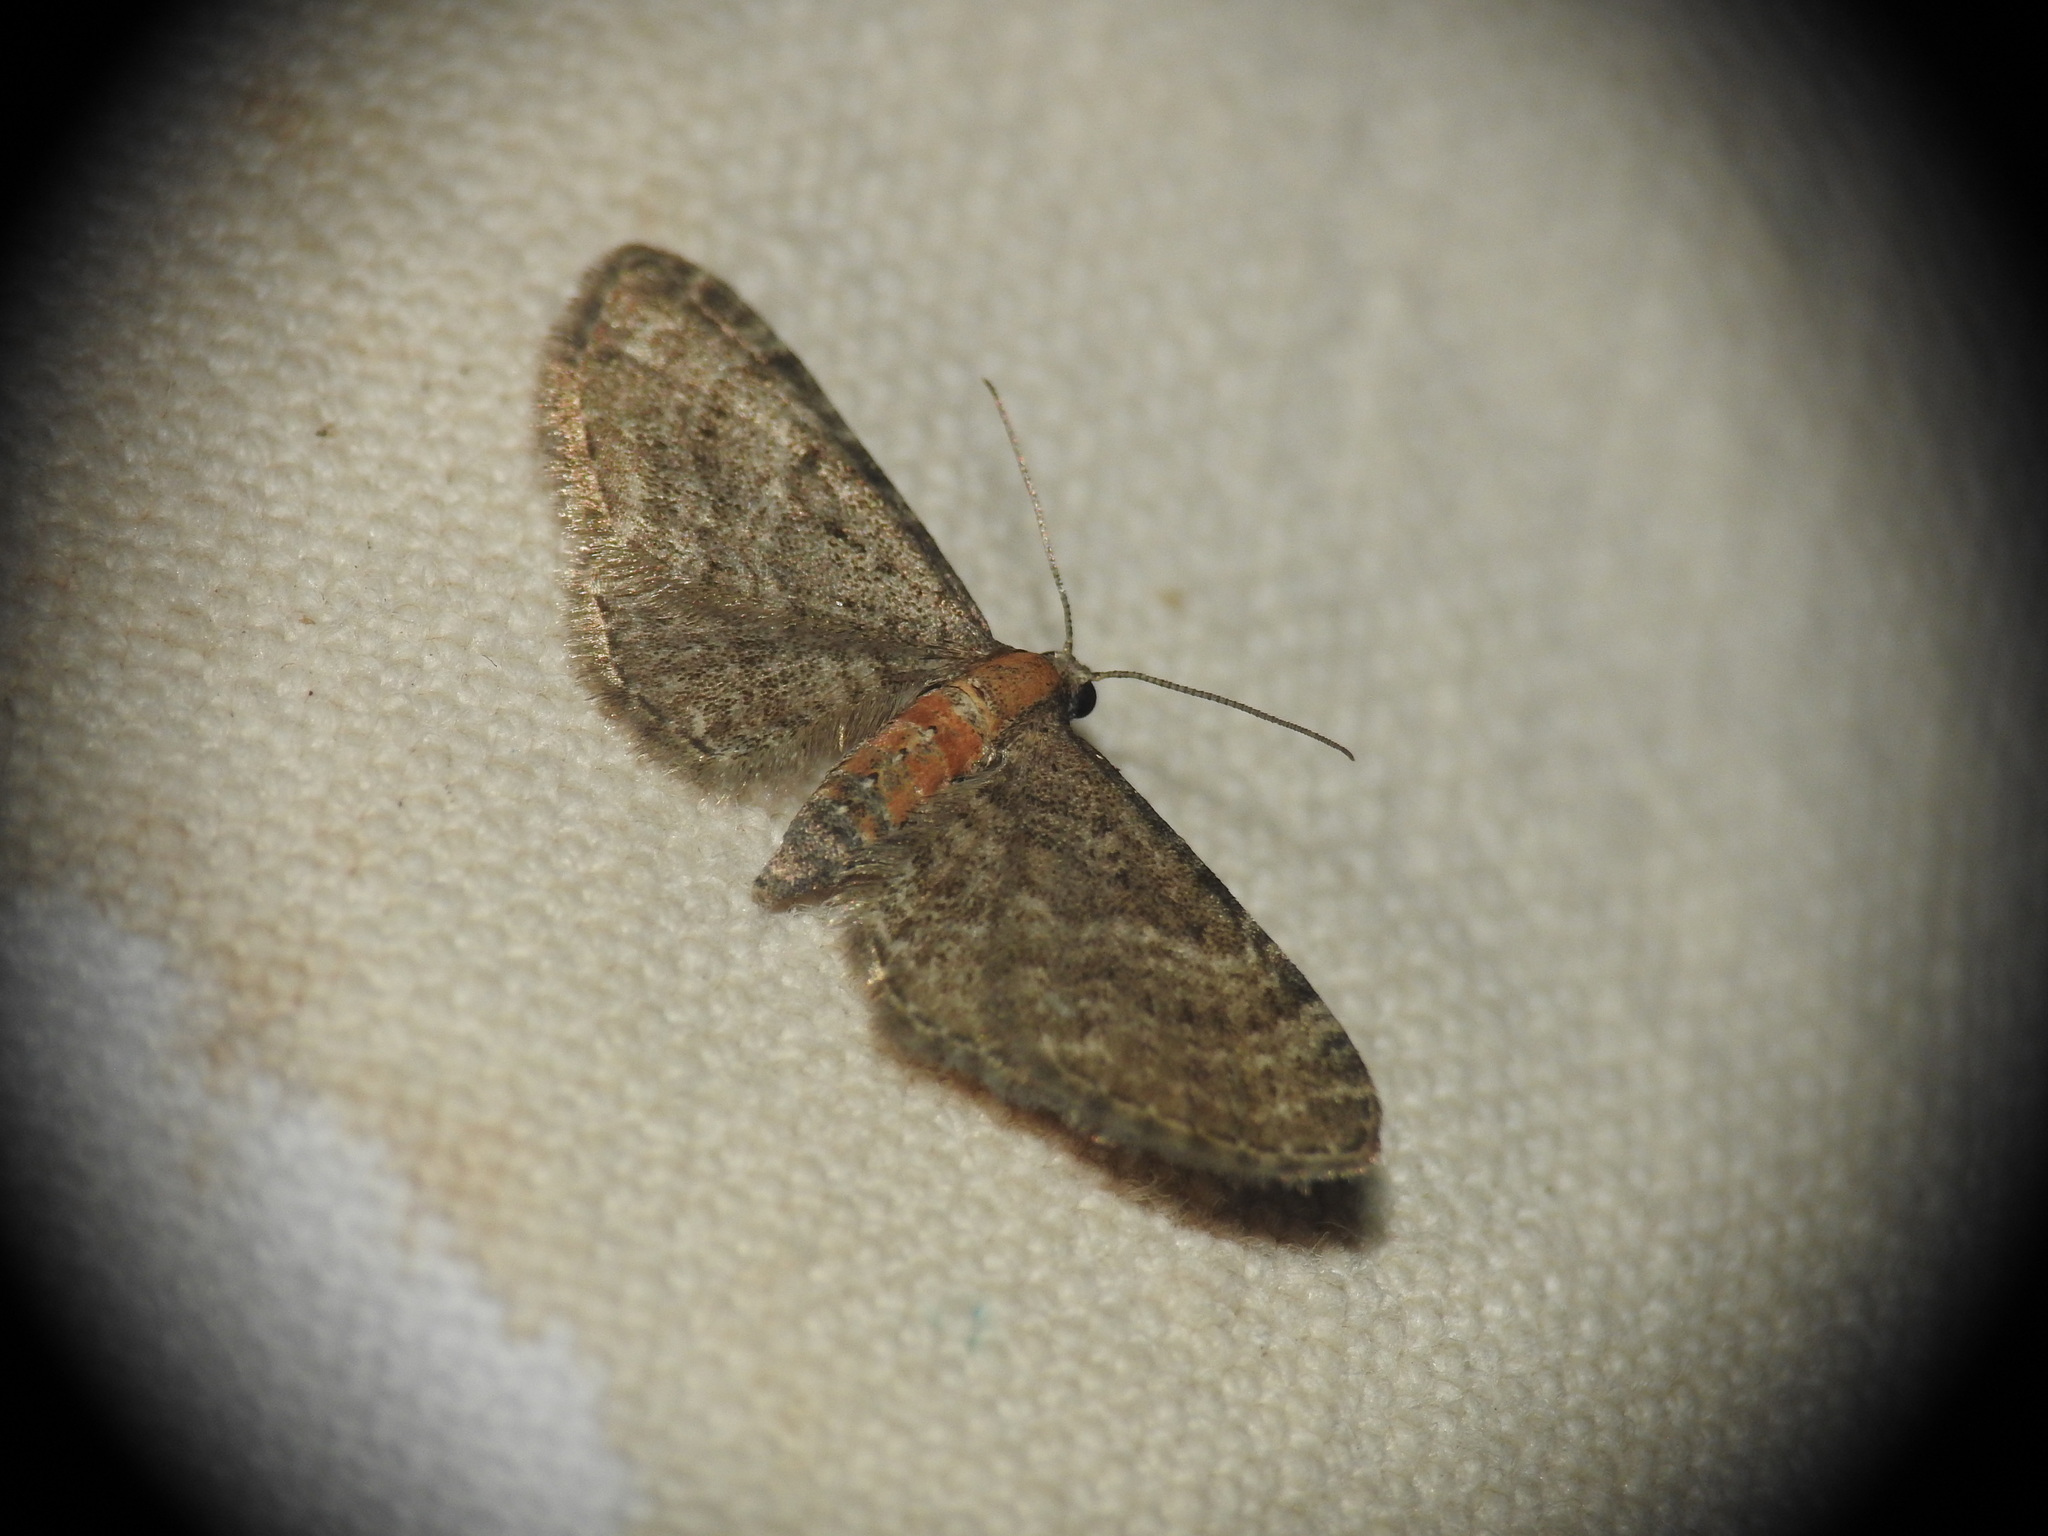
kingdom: Animalia
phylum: Arthropoda
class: Insecta
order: Lepidoptera
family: Geometridae
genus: Eupithecia
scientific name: Eupithecia haworthiata
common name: Haworth's pug
